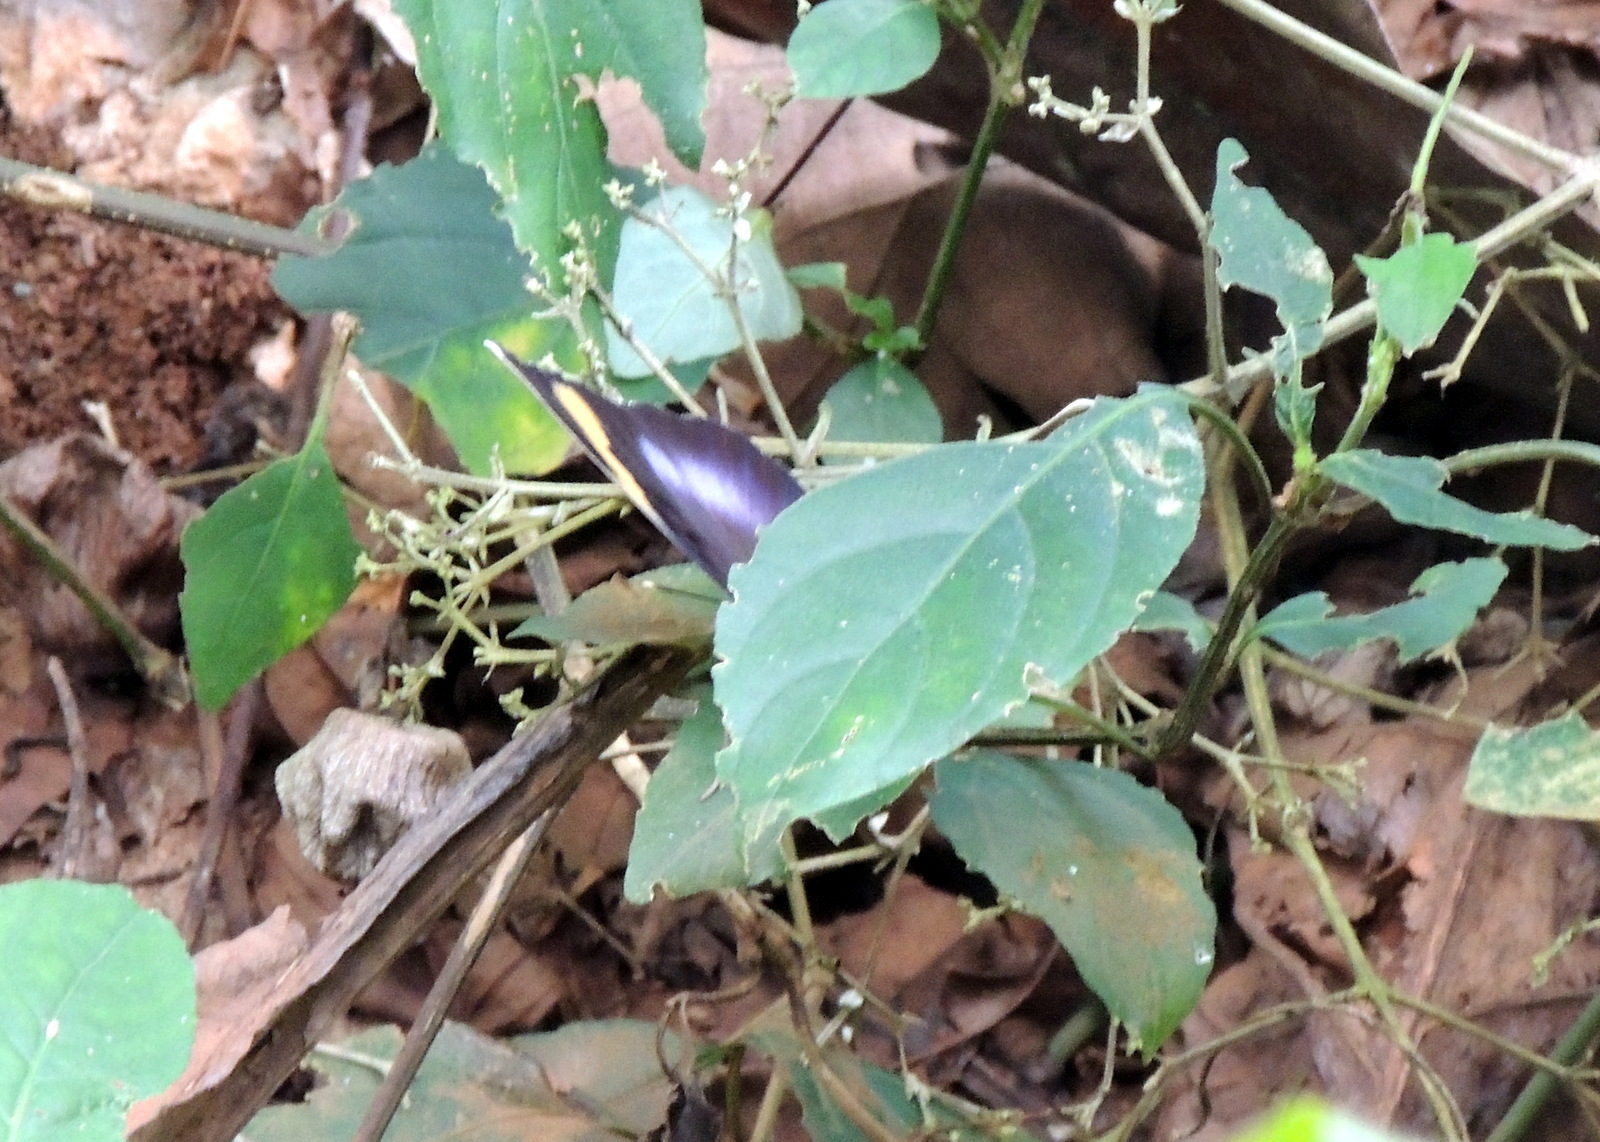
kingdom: Animalia
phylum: Arthropoda
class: Insecta
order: Lepidoptera
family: Nymphalidae
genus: Euphaedra
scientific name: Euphaedra medon
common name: Widespread forester
